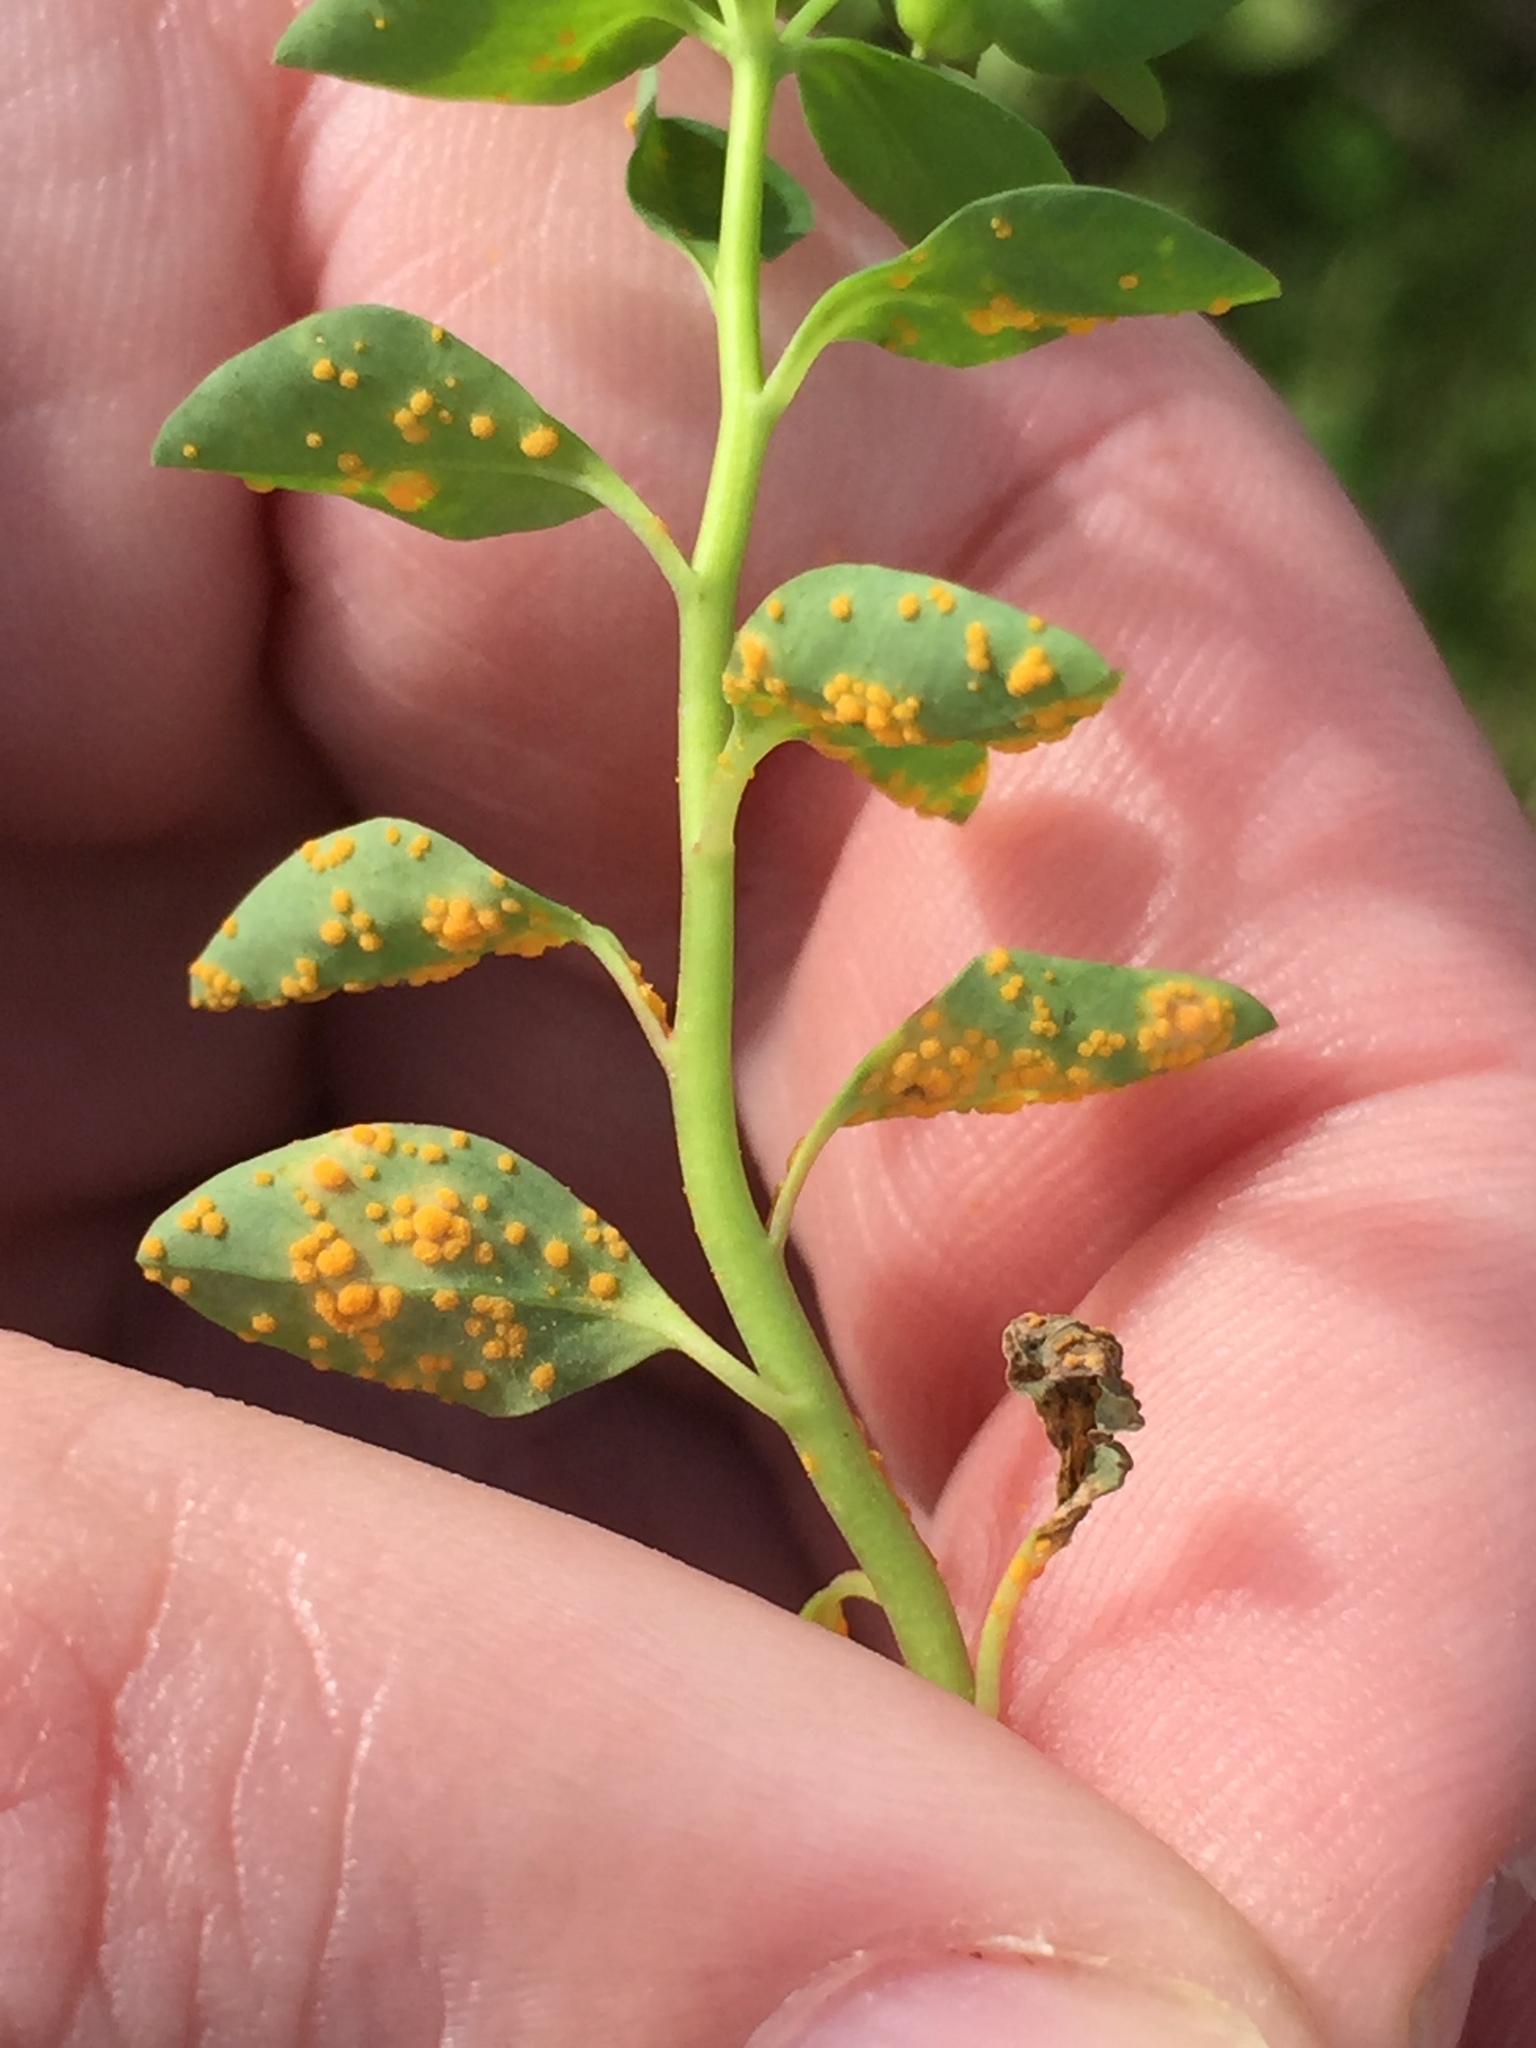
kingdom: Fungi
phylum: Basidiomycota
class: Pucciniomycetes
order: Pucciniales
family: Melampsoraceae
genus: Melampsora
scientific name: Melampsora euphorbiae
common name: Spurge rust
